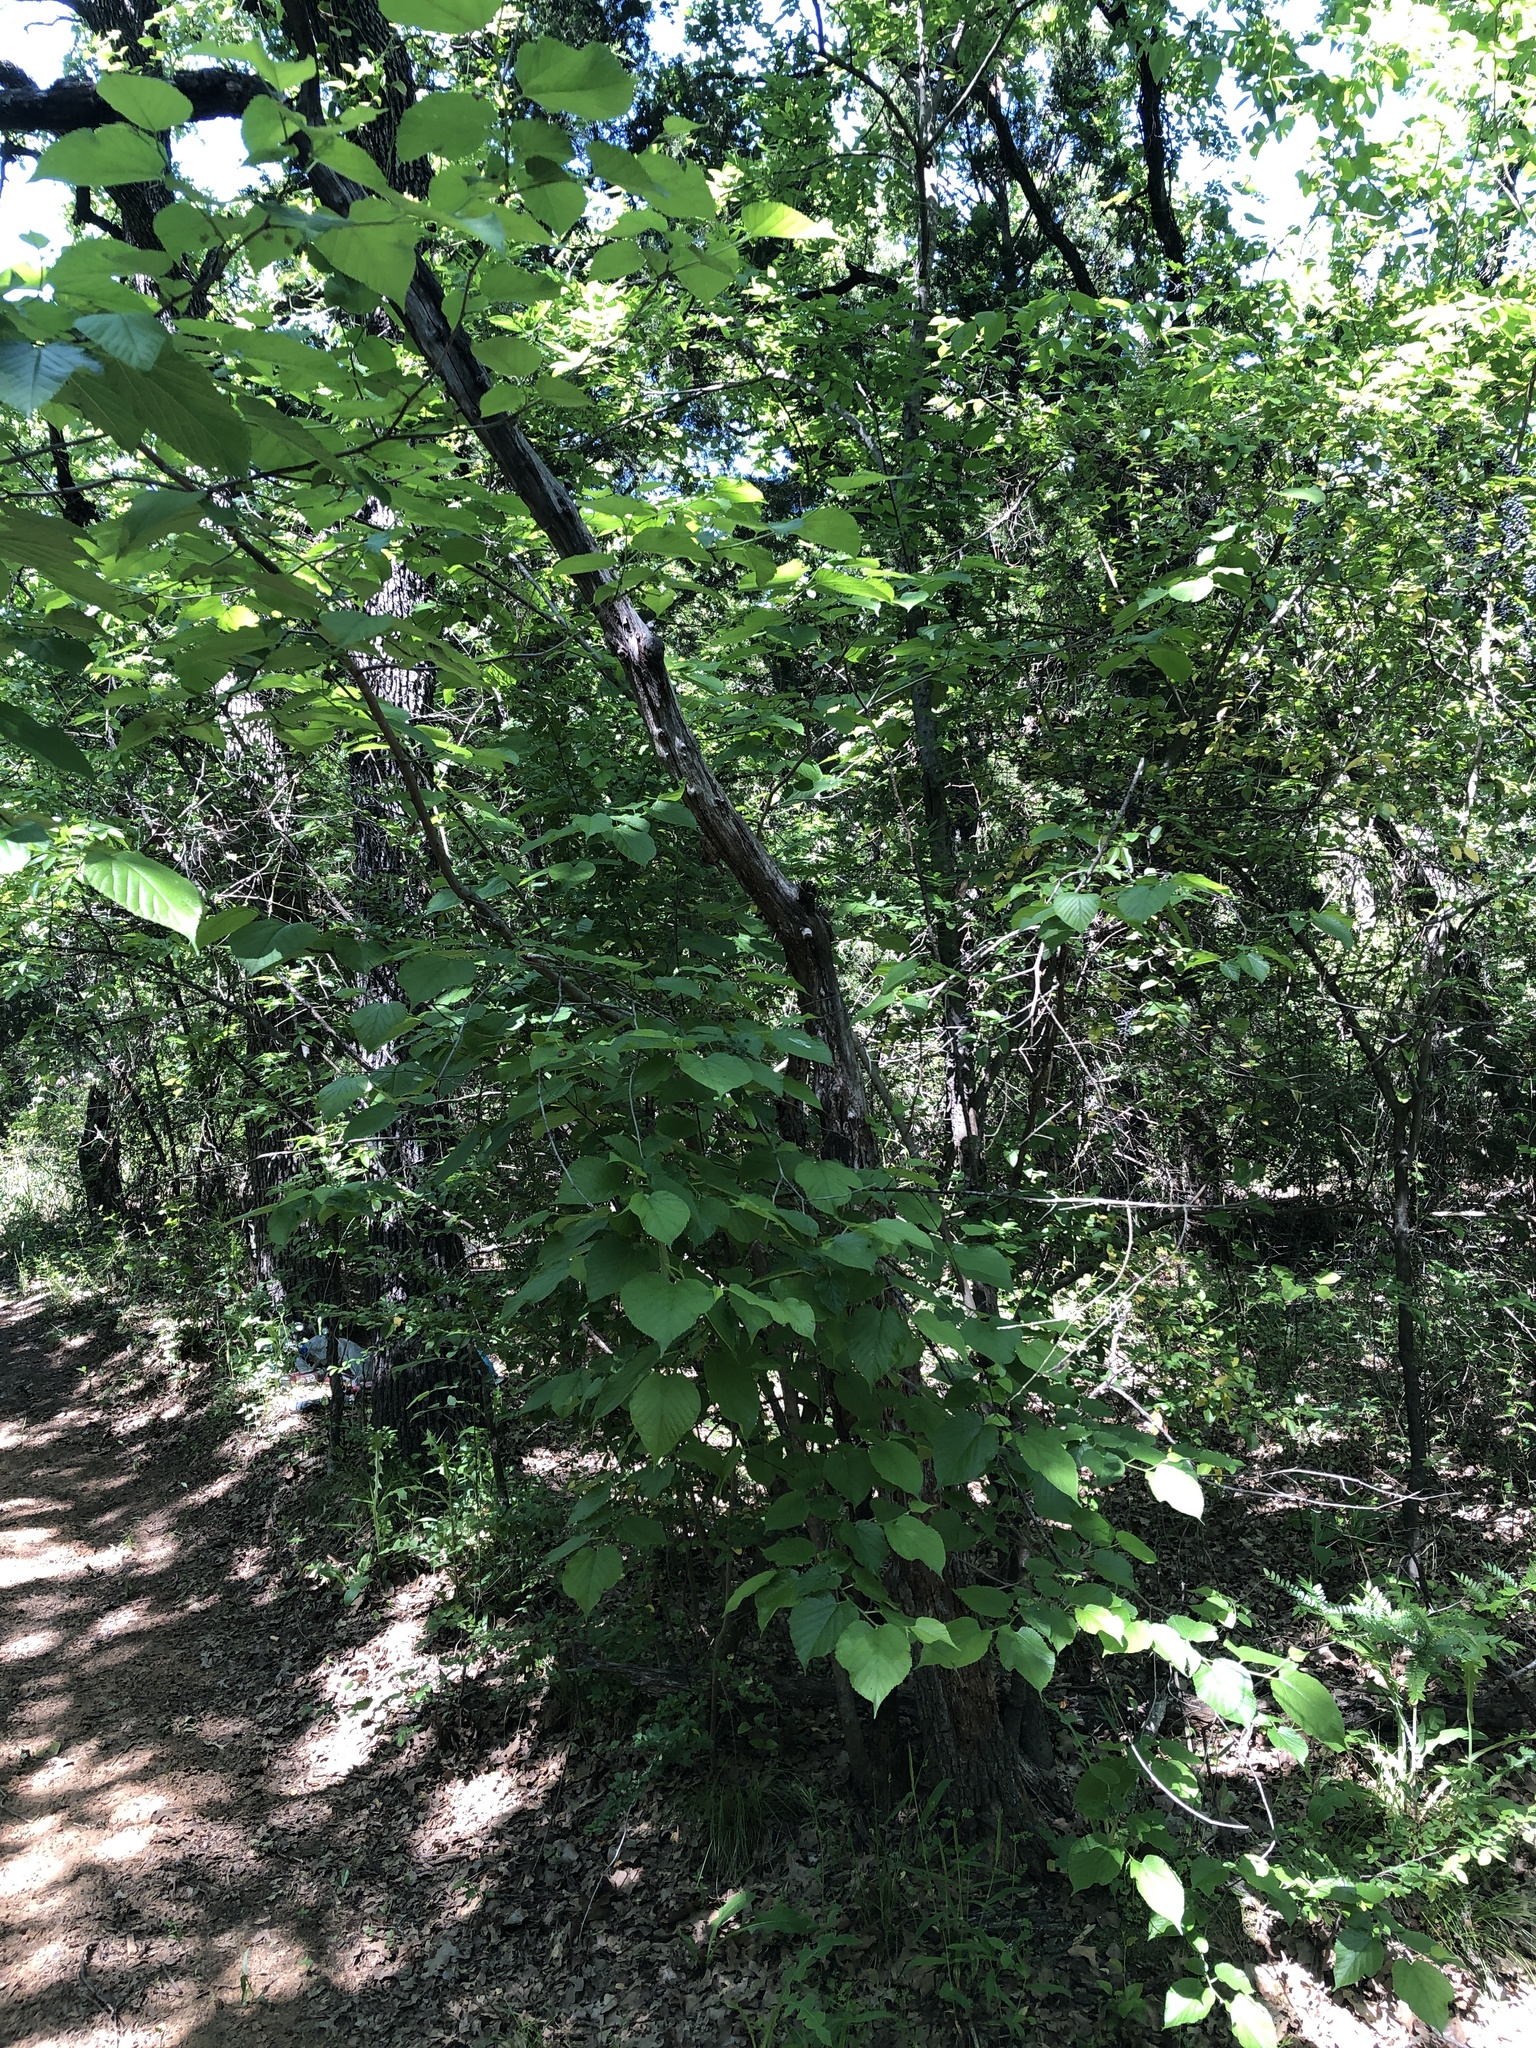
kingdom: Plantae
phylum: Tracheophyta
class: Magnoliopsida
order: Rosales
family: Moraceae
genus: Morus
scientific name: Morus rubra
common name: Red mulberry
